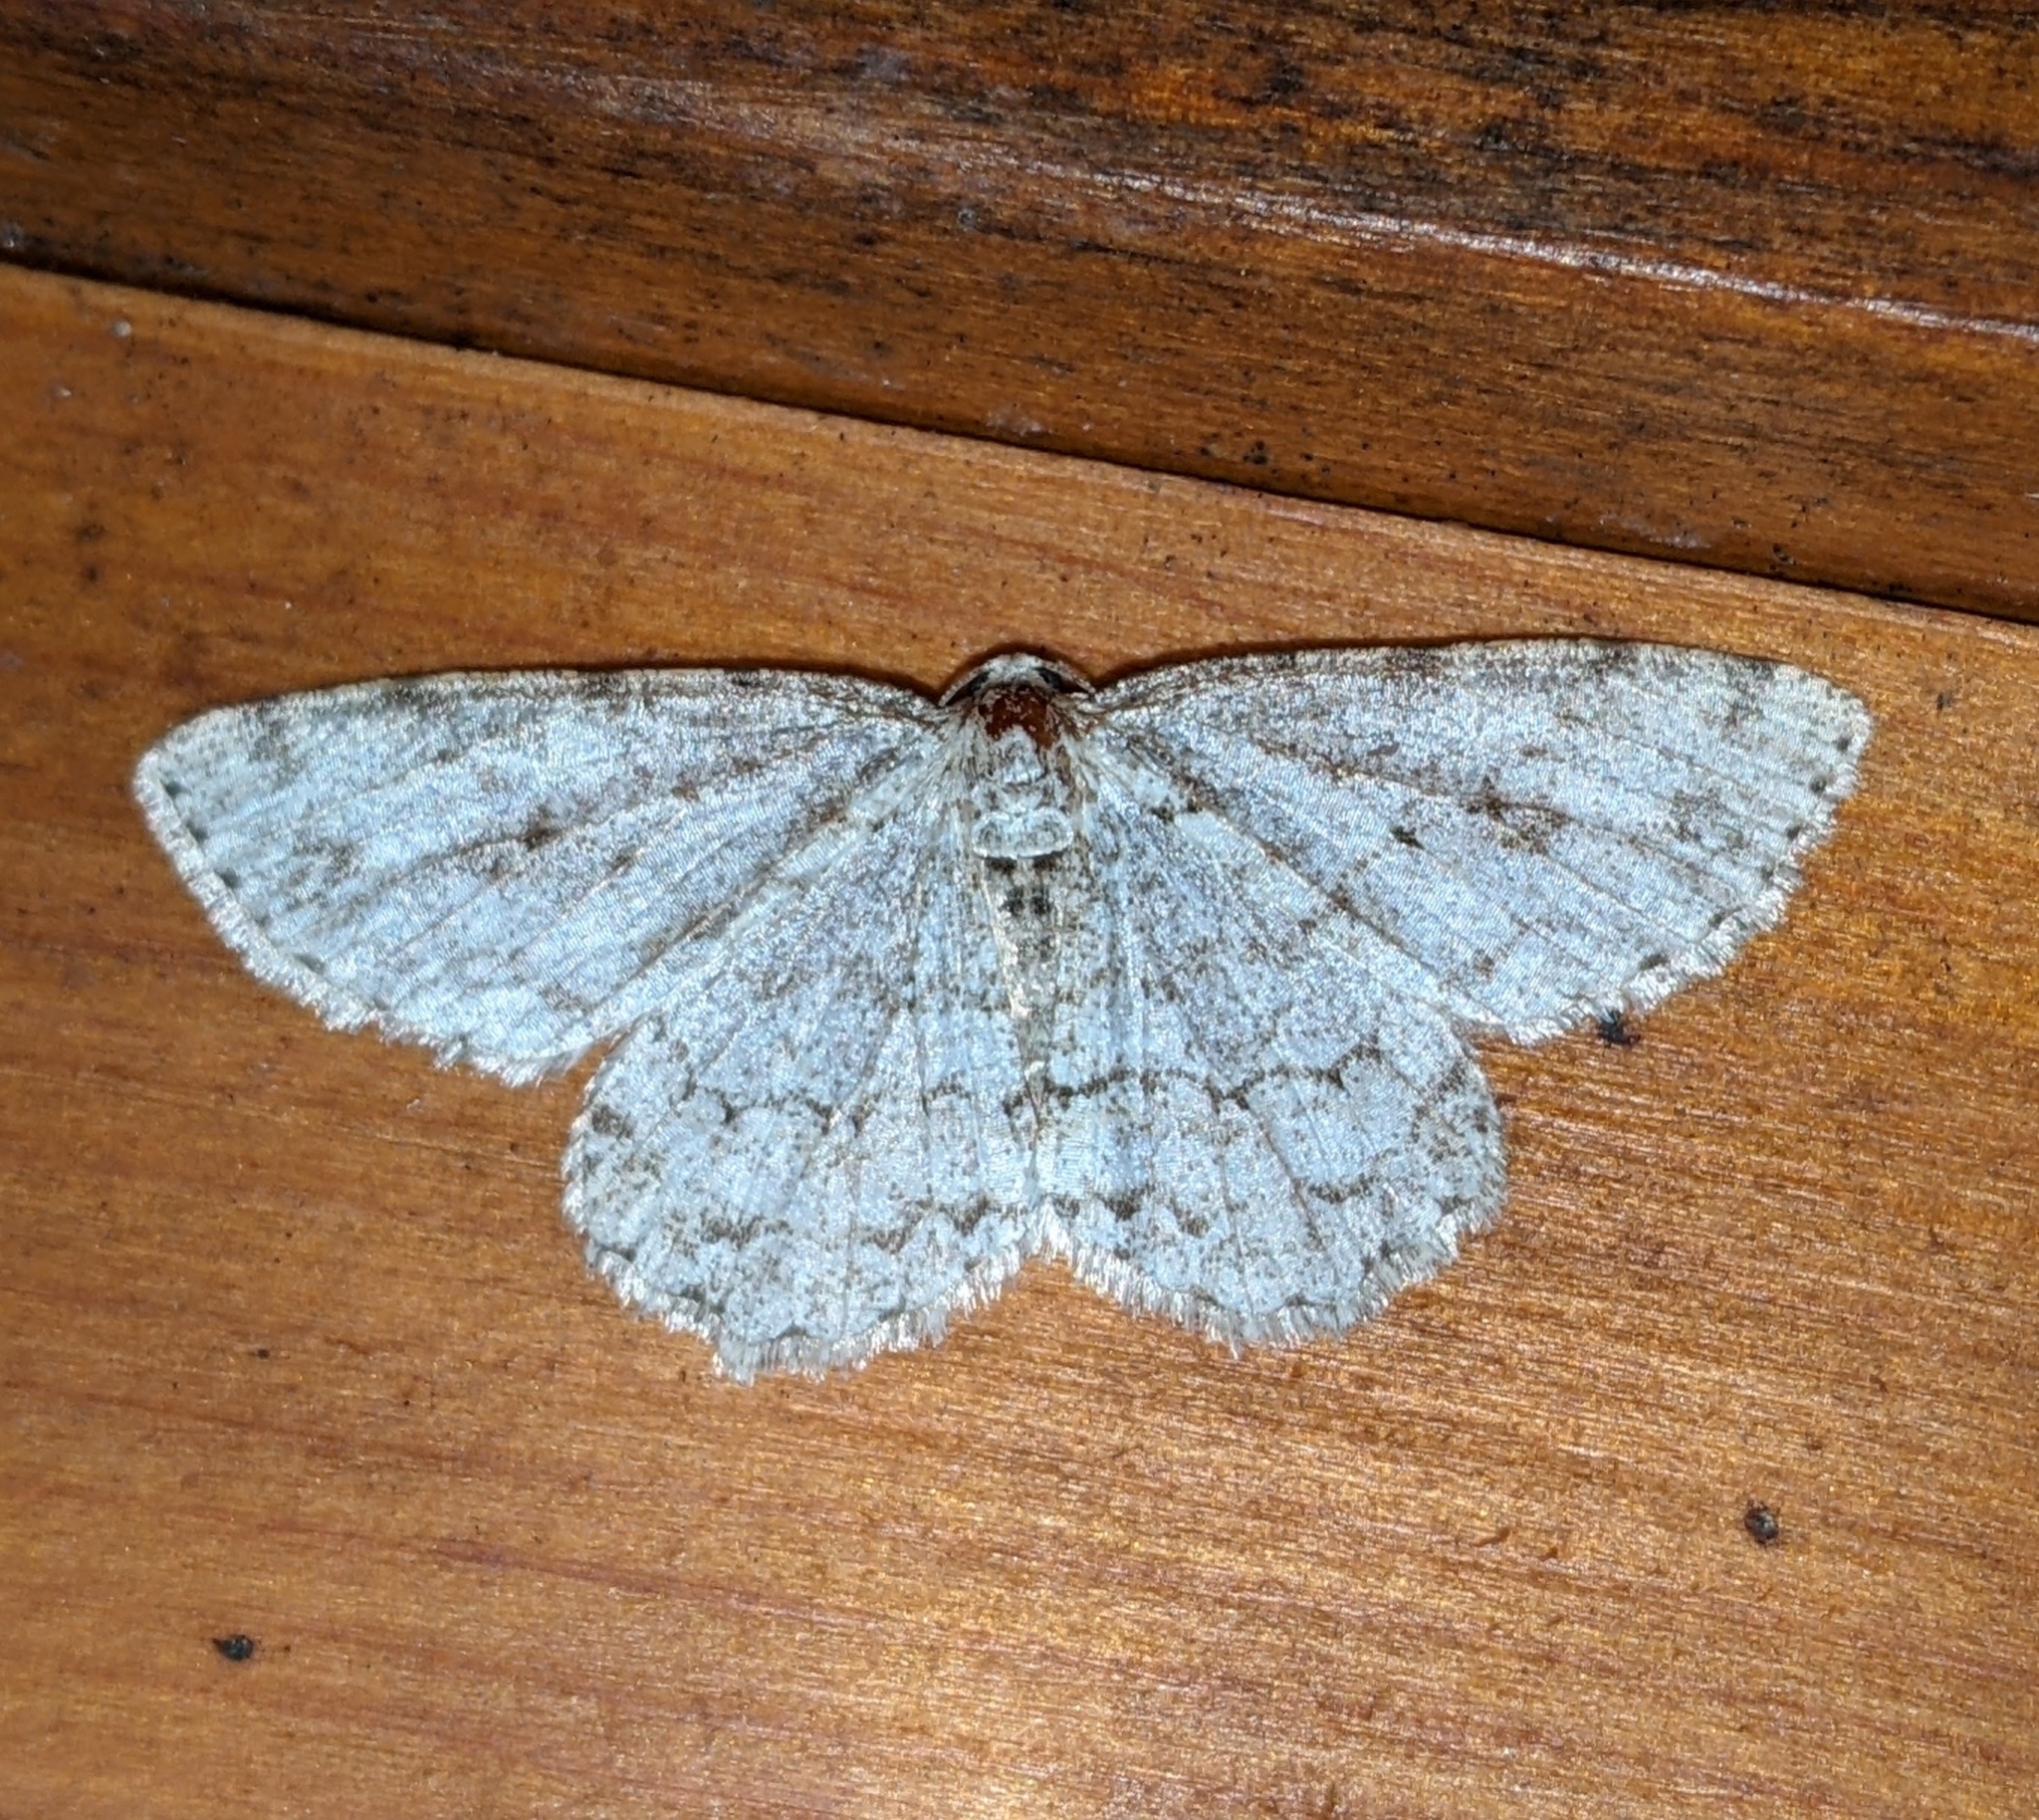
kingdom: Animalia
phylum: Arthropoda
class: Insecta
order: Lepidoptera
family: Geometridae
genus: Ectropis
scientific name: Ectropis crepuscularia
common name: Engrailed
